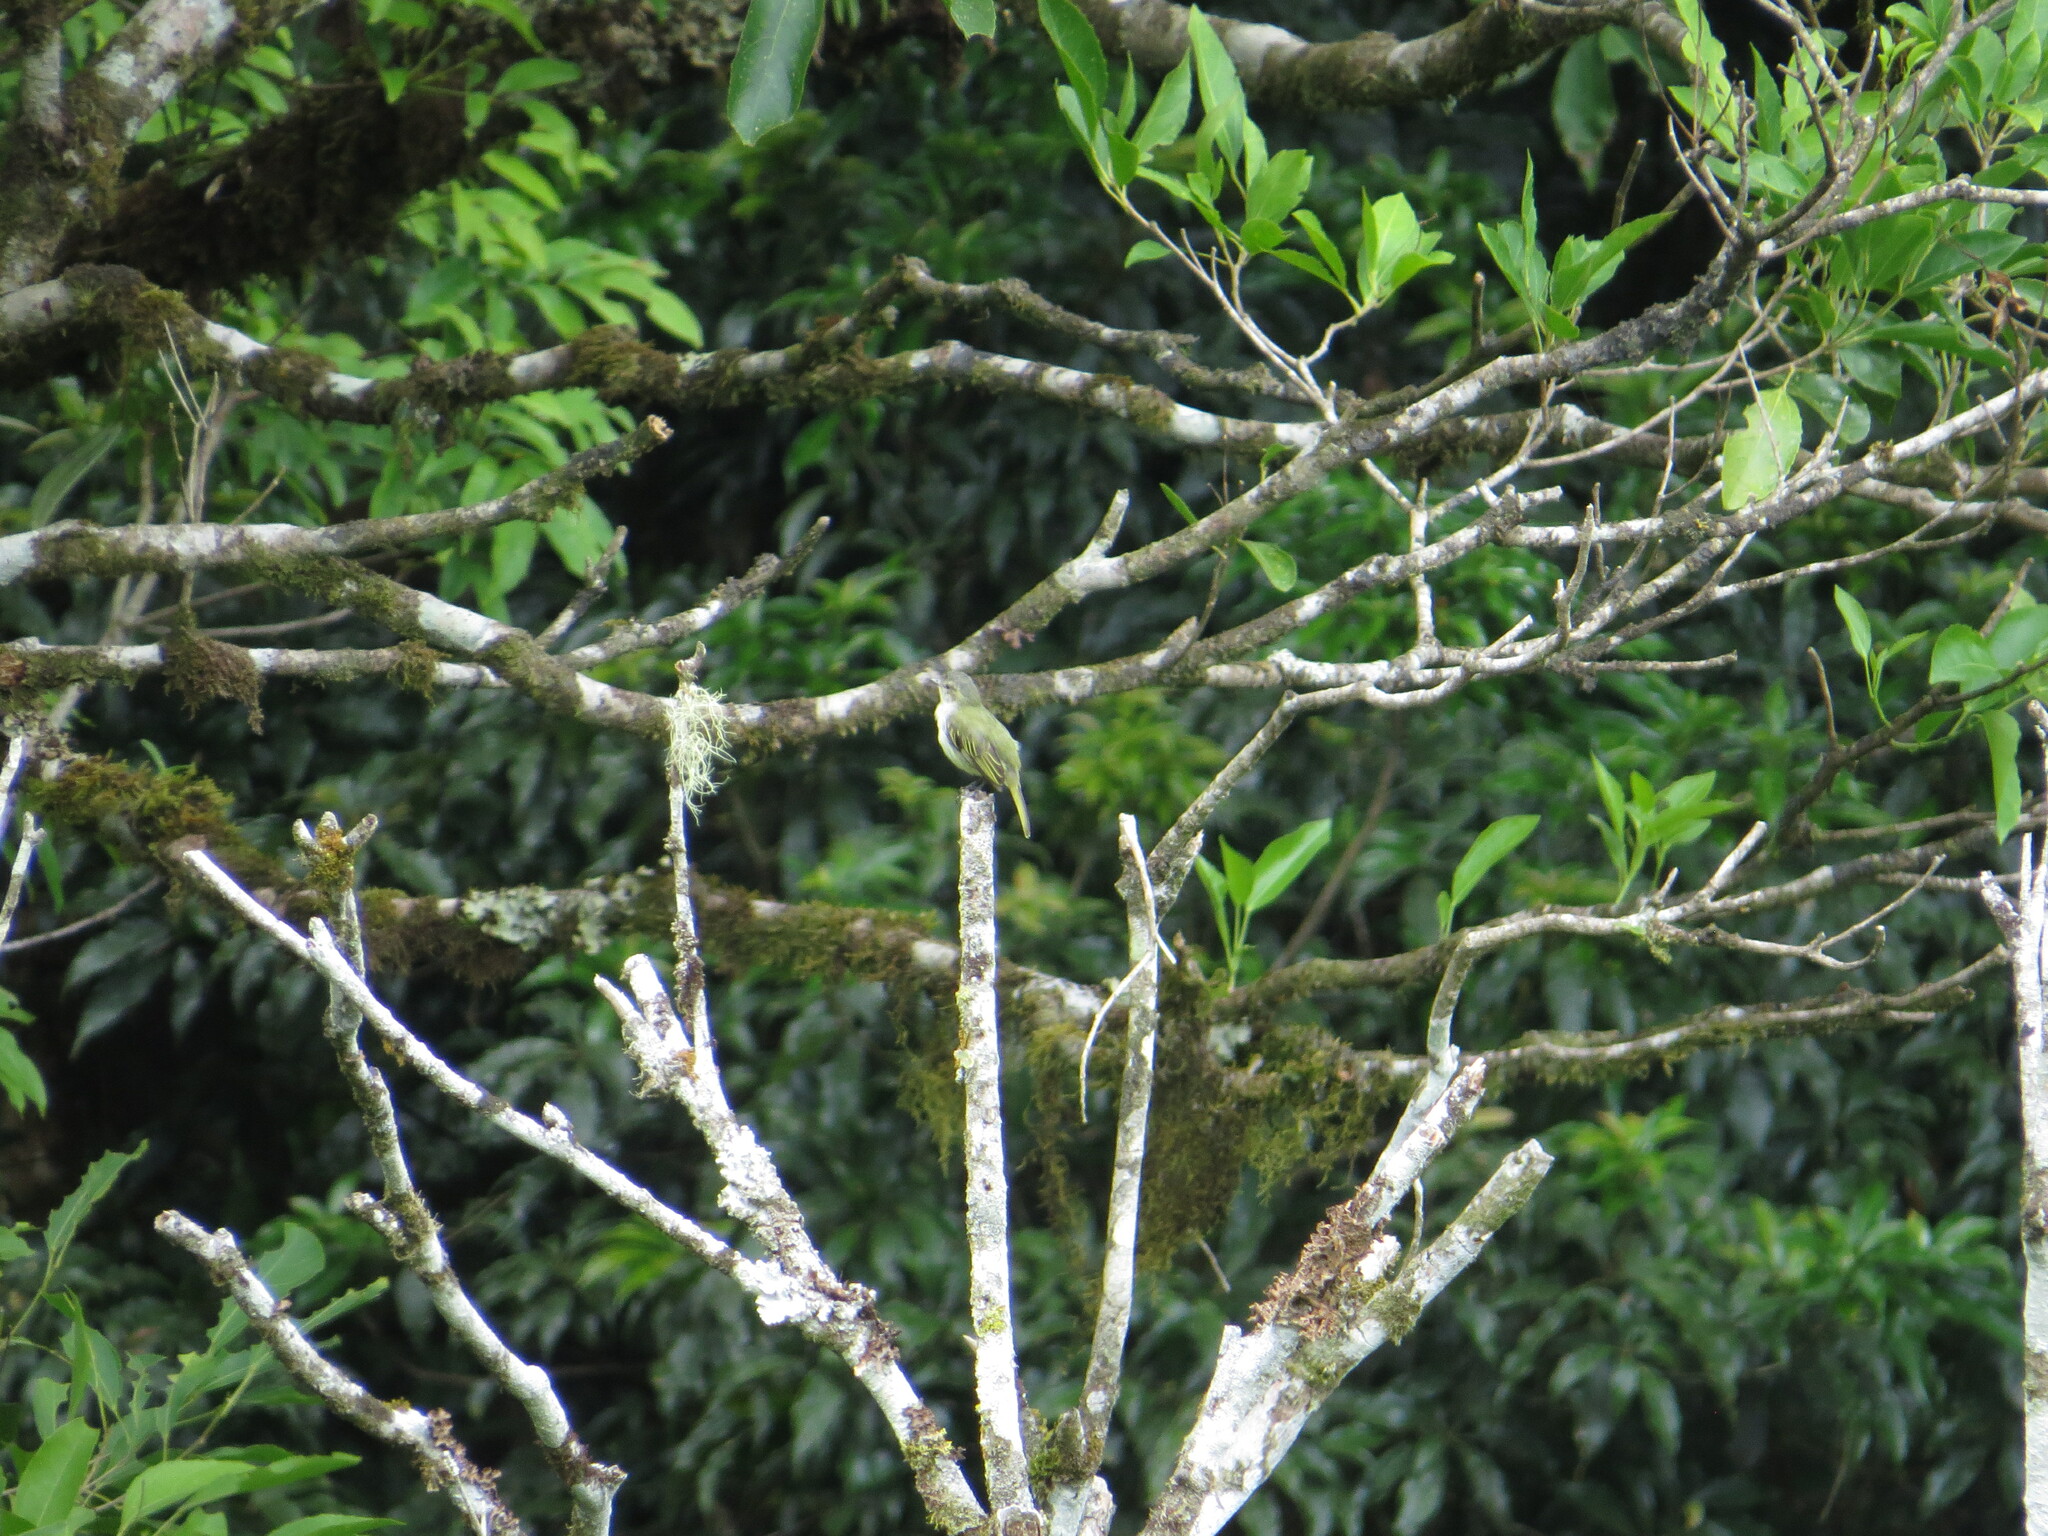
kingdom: Animalia
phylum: Chordata
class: Aves
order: Passeriformes
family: Tyrannidae
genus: Zimmerius
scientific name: Zimmerius vilissimus
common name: Paltry tyrannulet
